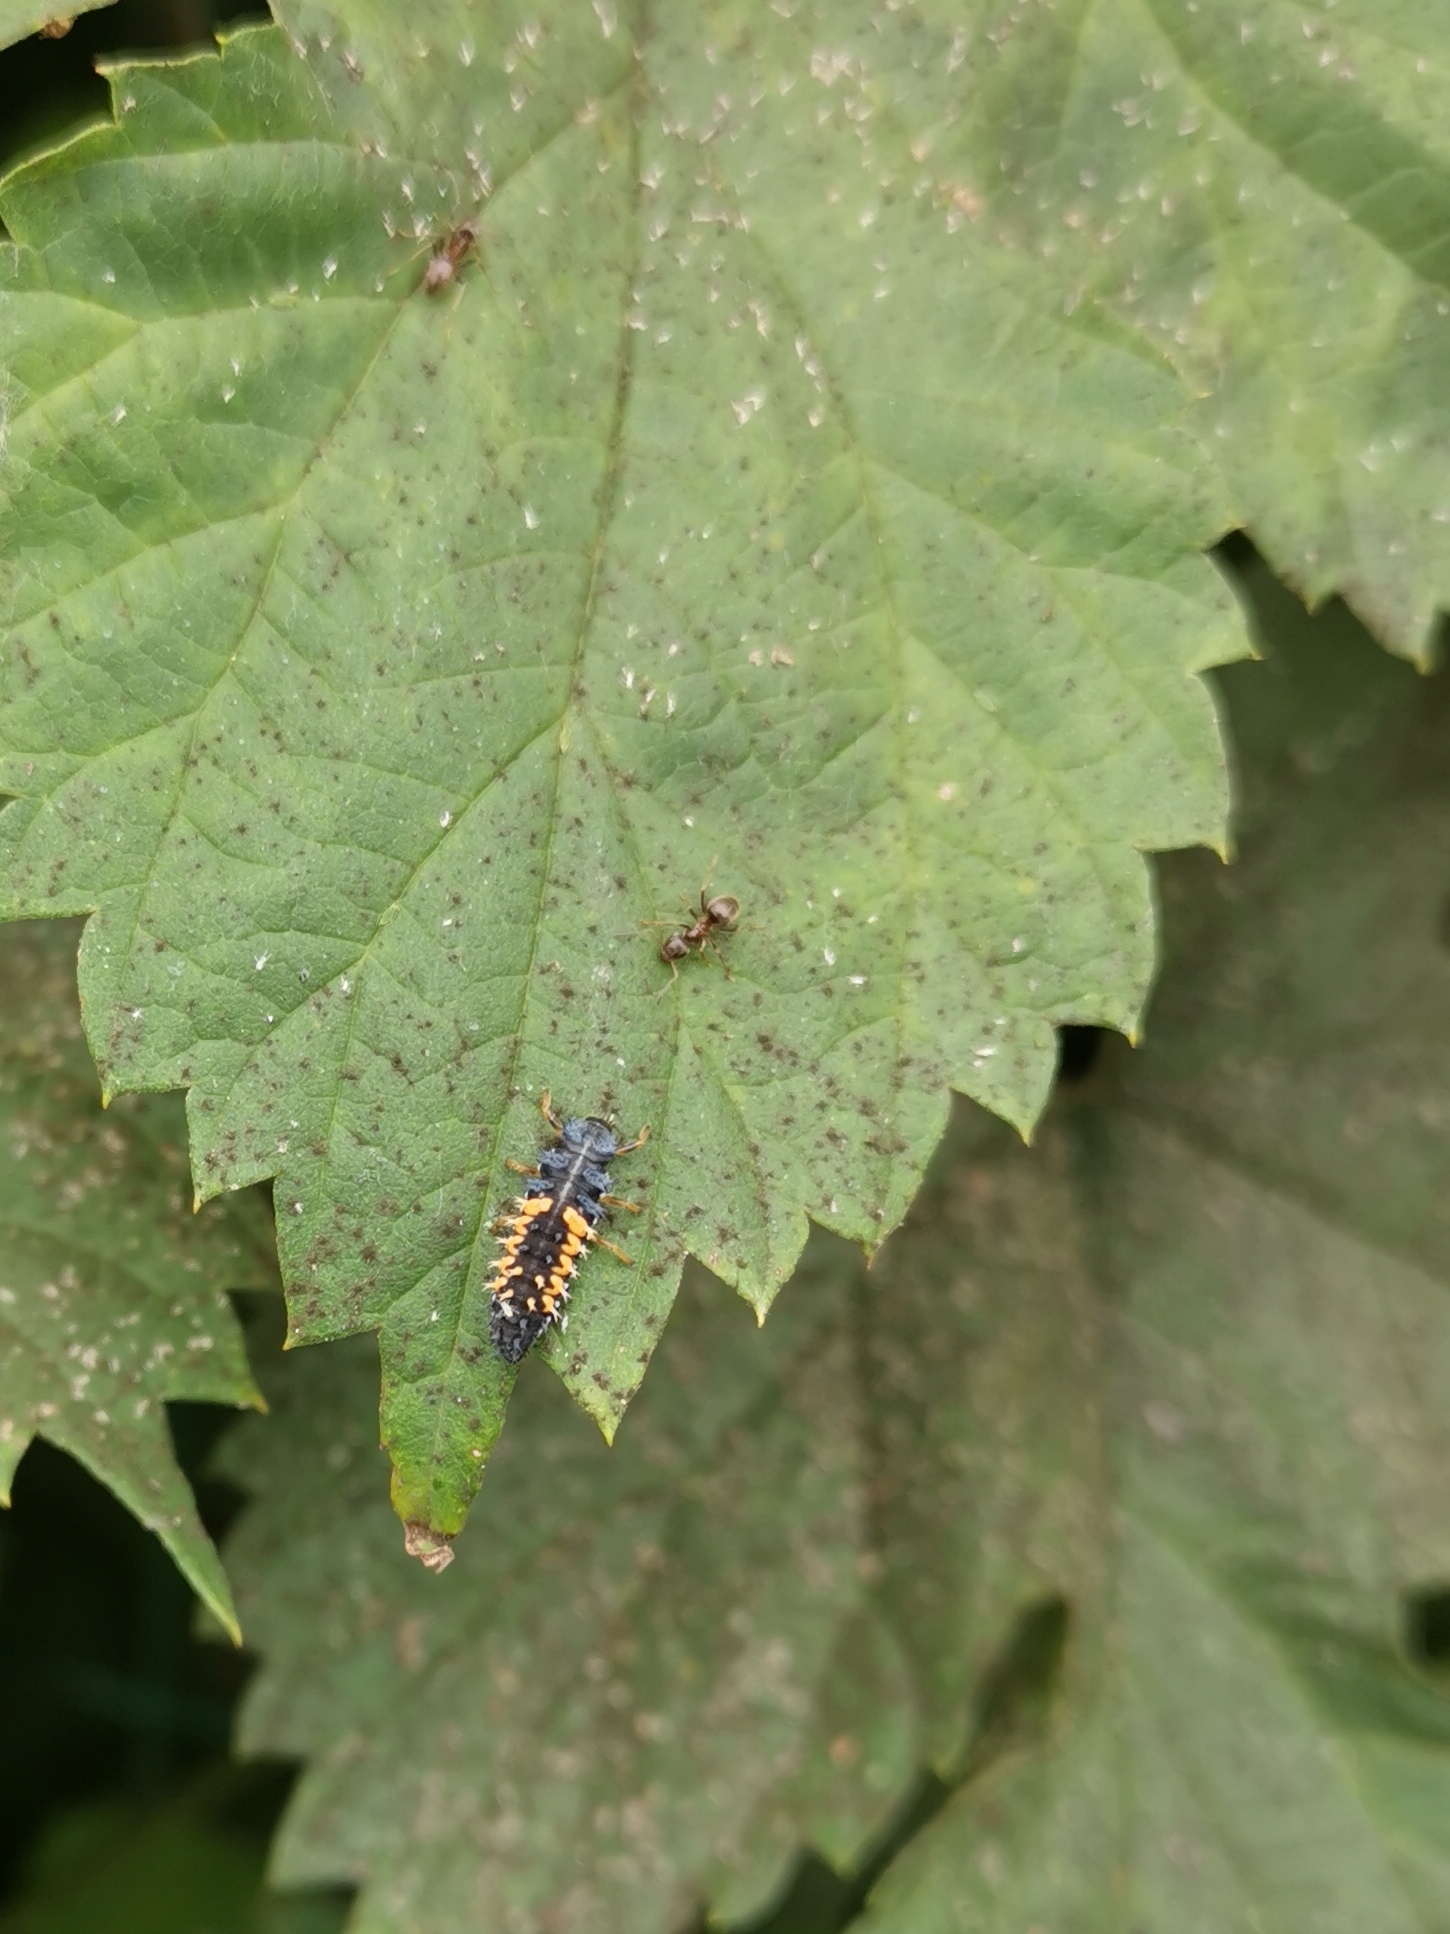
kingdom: Animalia
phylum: Arthropoda
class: Insecta
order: Coleoptera
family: Coccinellidae
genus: Harmonia
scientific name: Harmonia axyridis
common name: Harlequin ladybird
